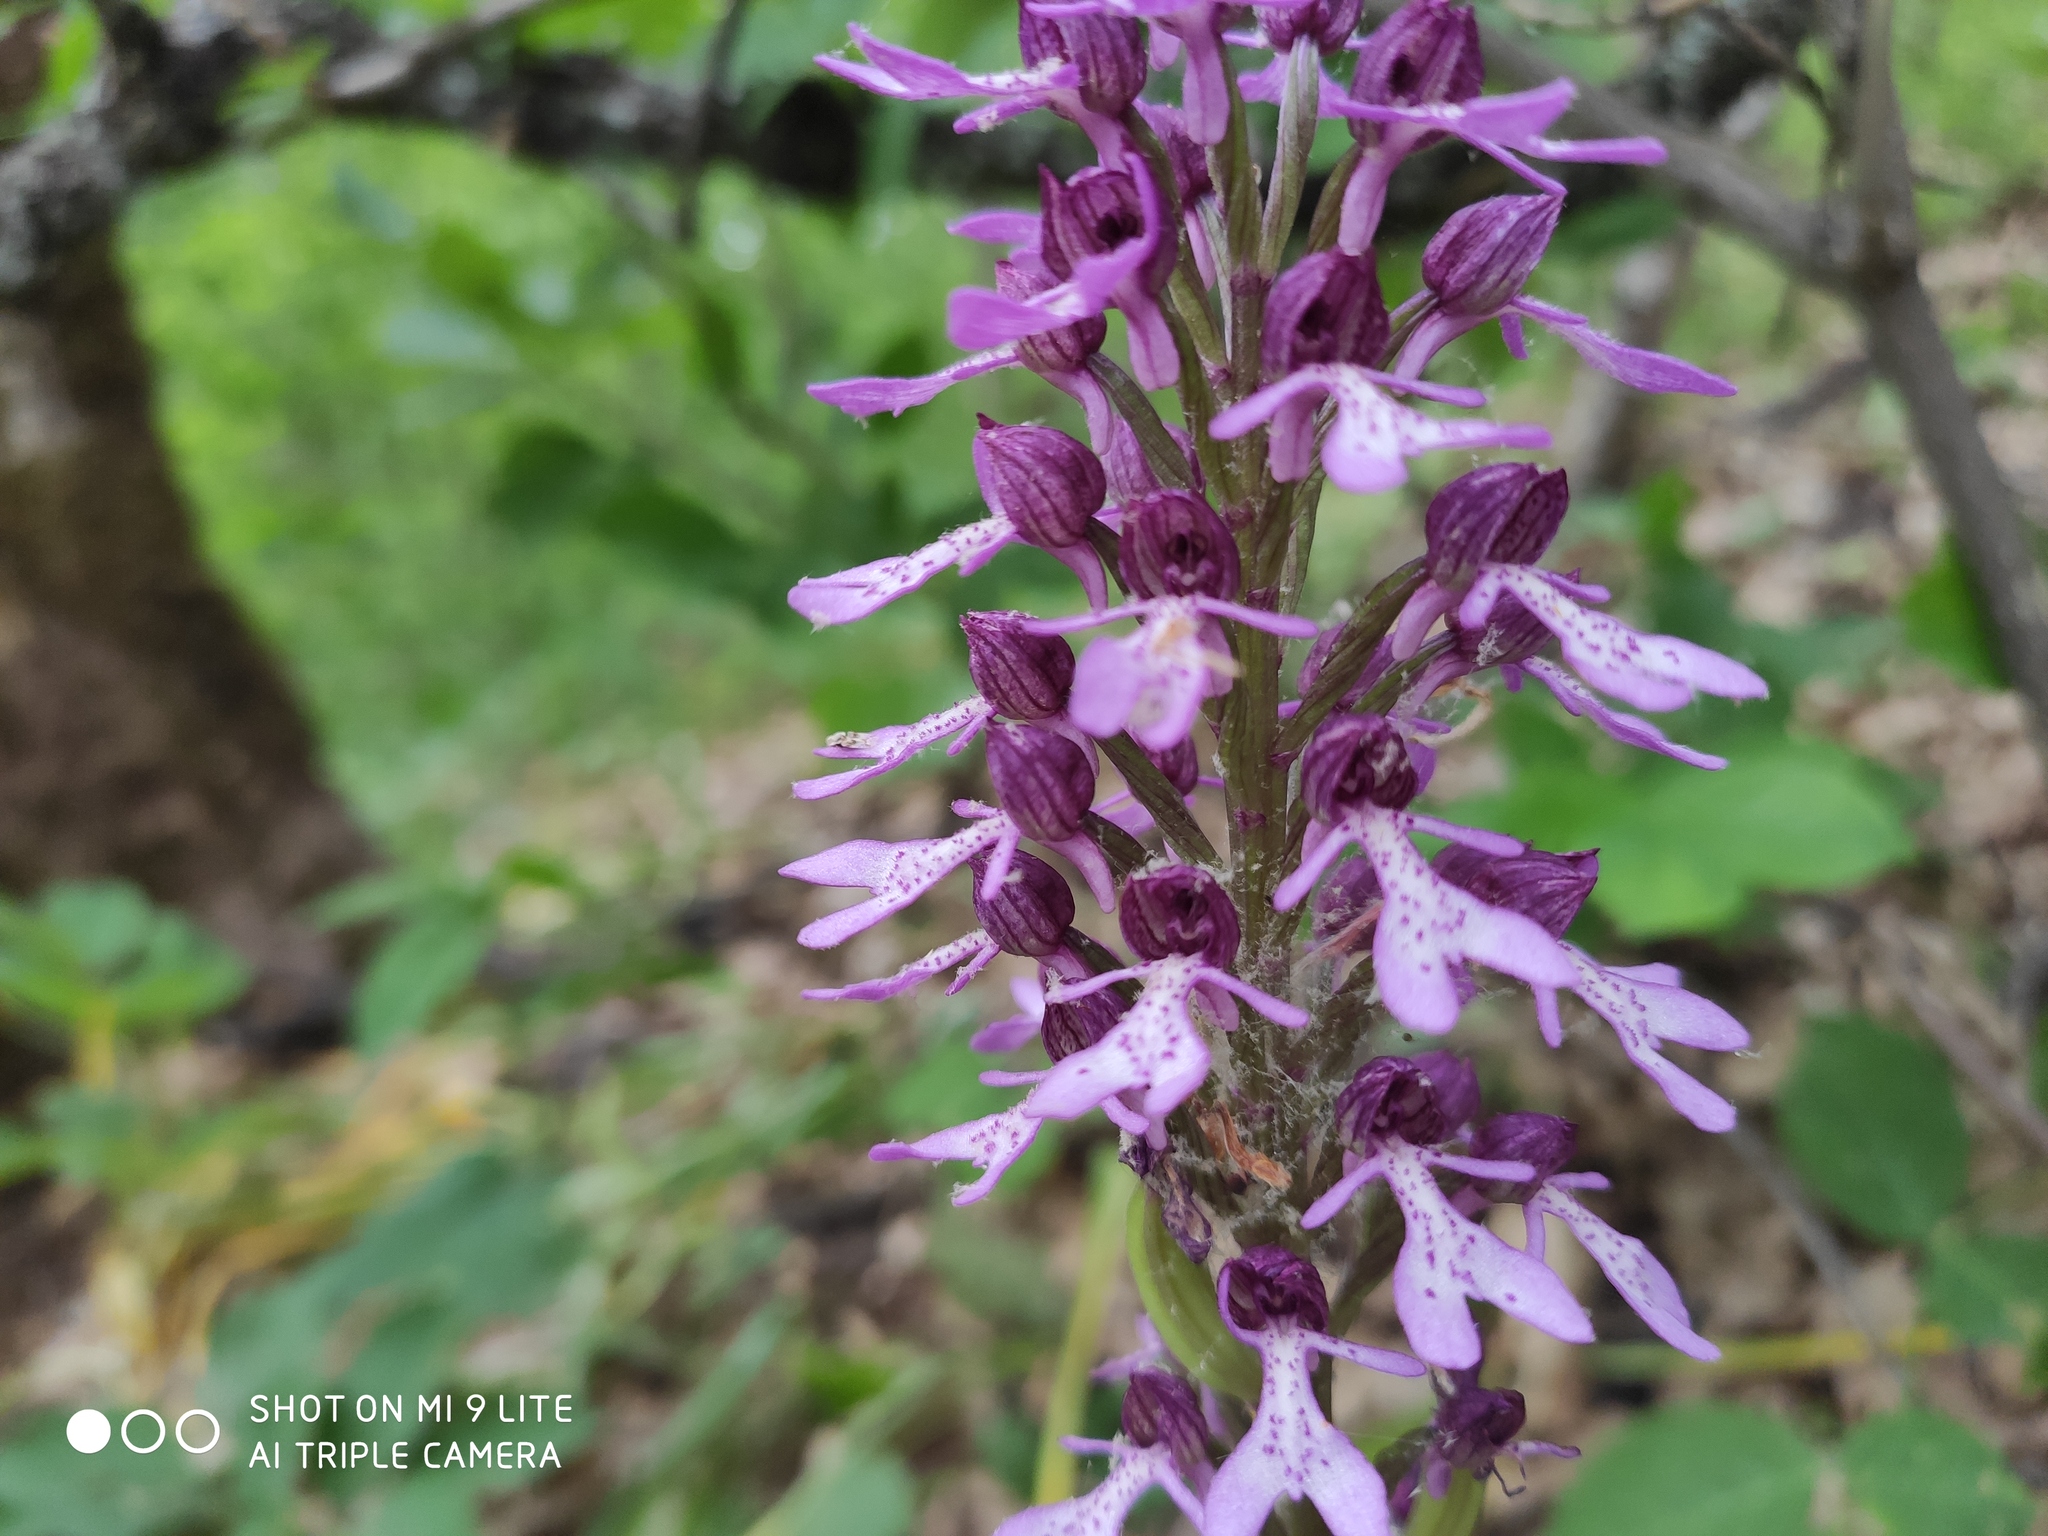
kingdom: Plantae
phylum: Tracheophyta
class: Liliopsida
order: Asparagales
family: Orchidaceae
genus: Orchis
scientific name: Orchis purpurea
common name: Lady orchid
